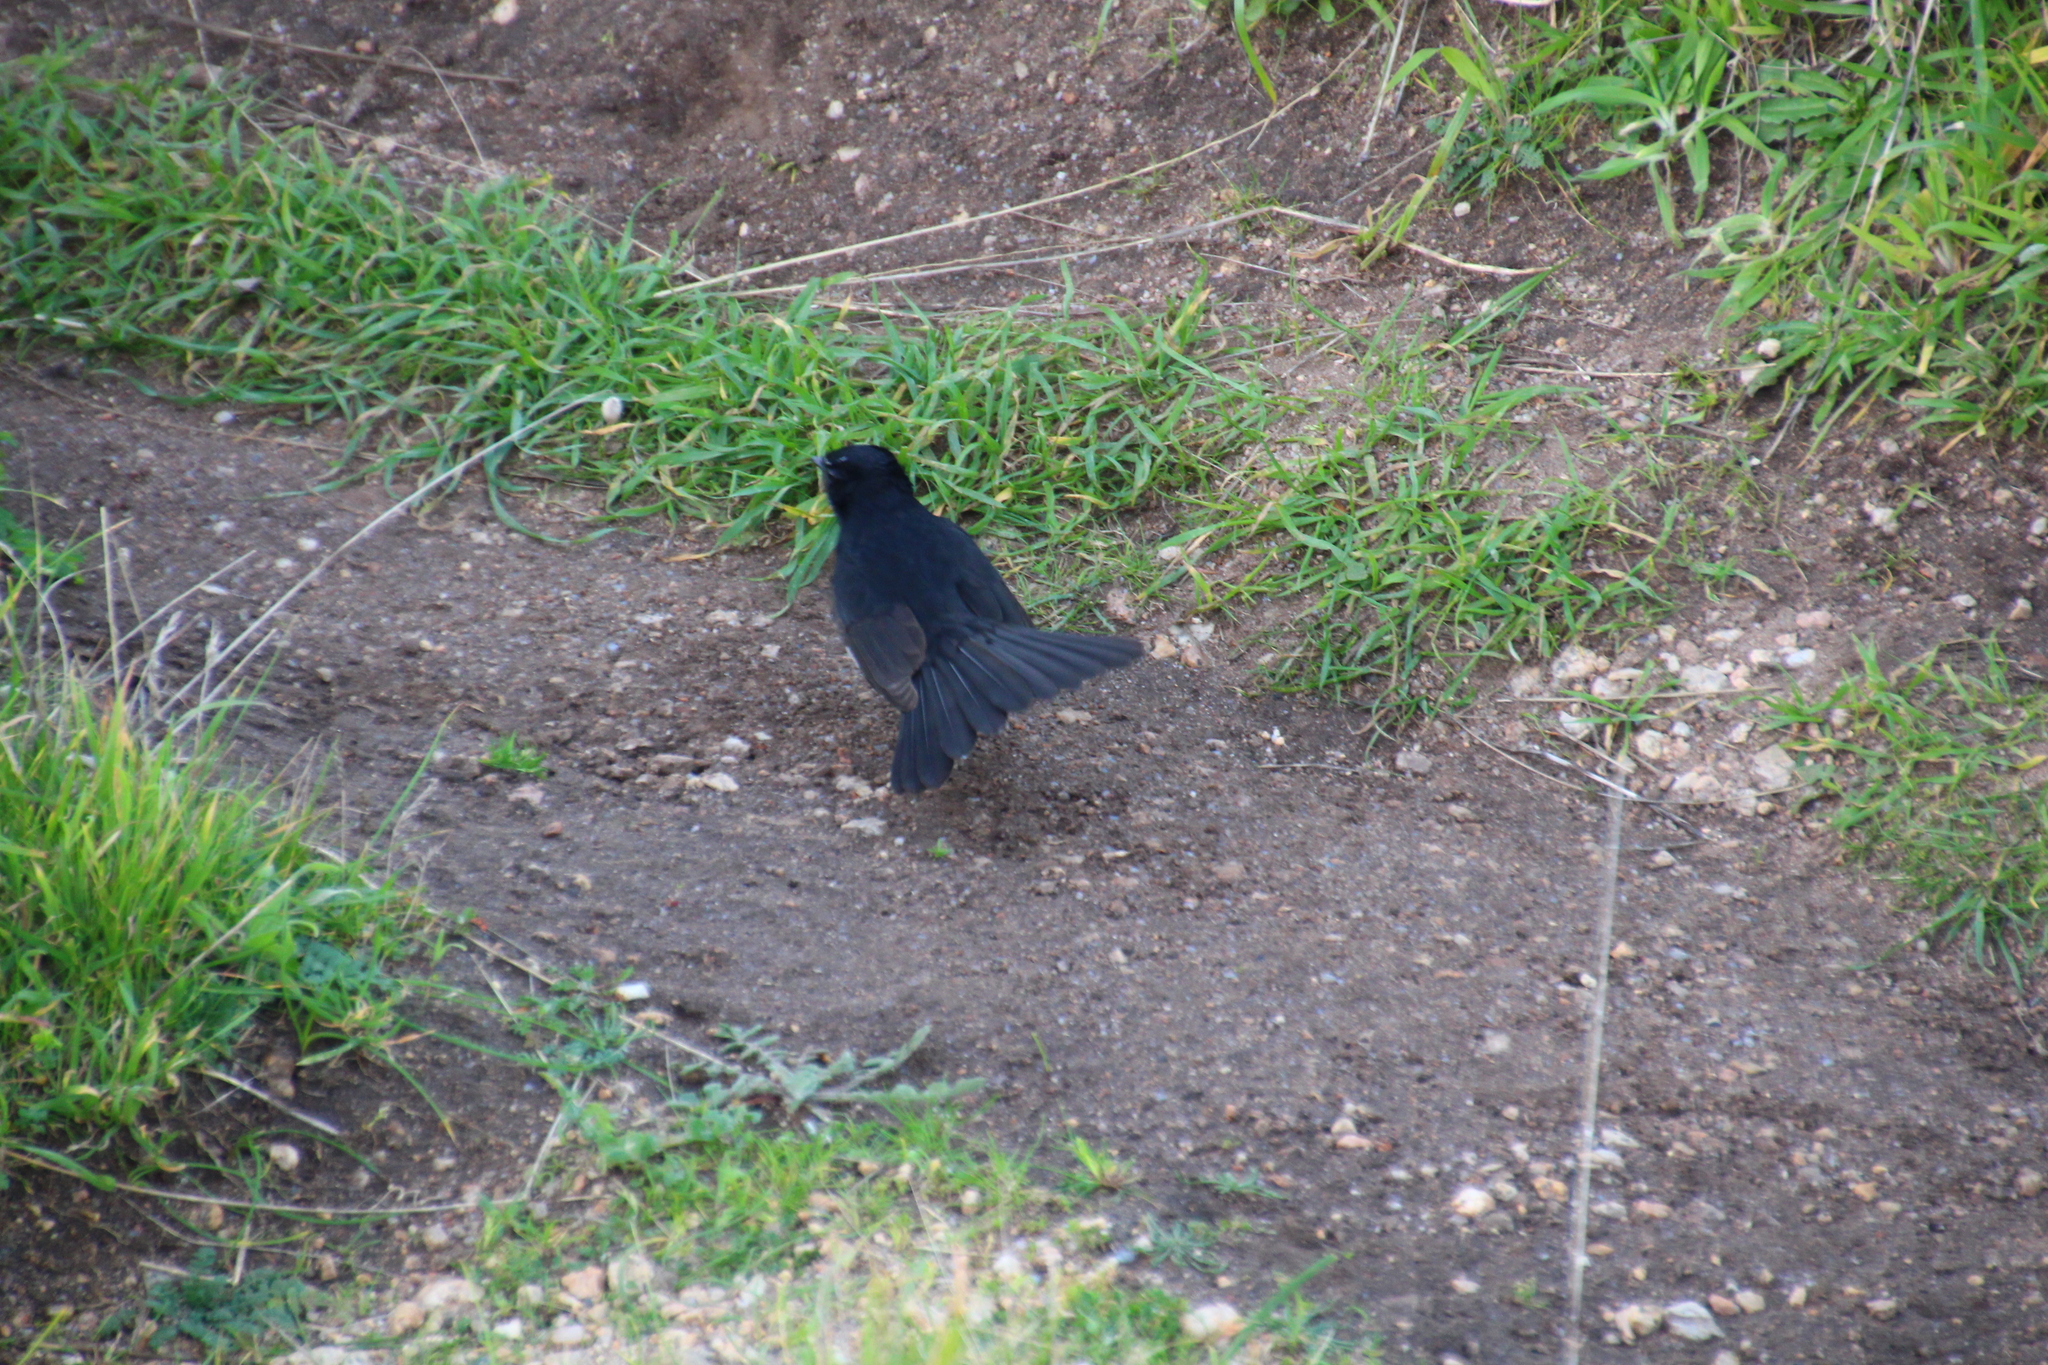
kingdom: Animalia
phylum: Chordata
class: Aves
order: Passeriformes
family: Rhipiduridae
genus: Rhipidura
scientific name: Rhipidura leucophrys
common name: Willie wagtail
